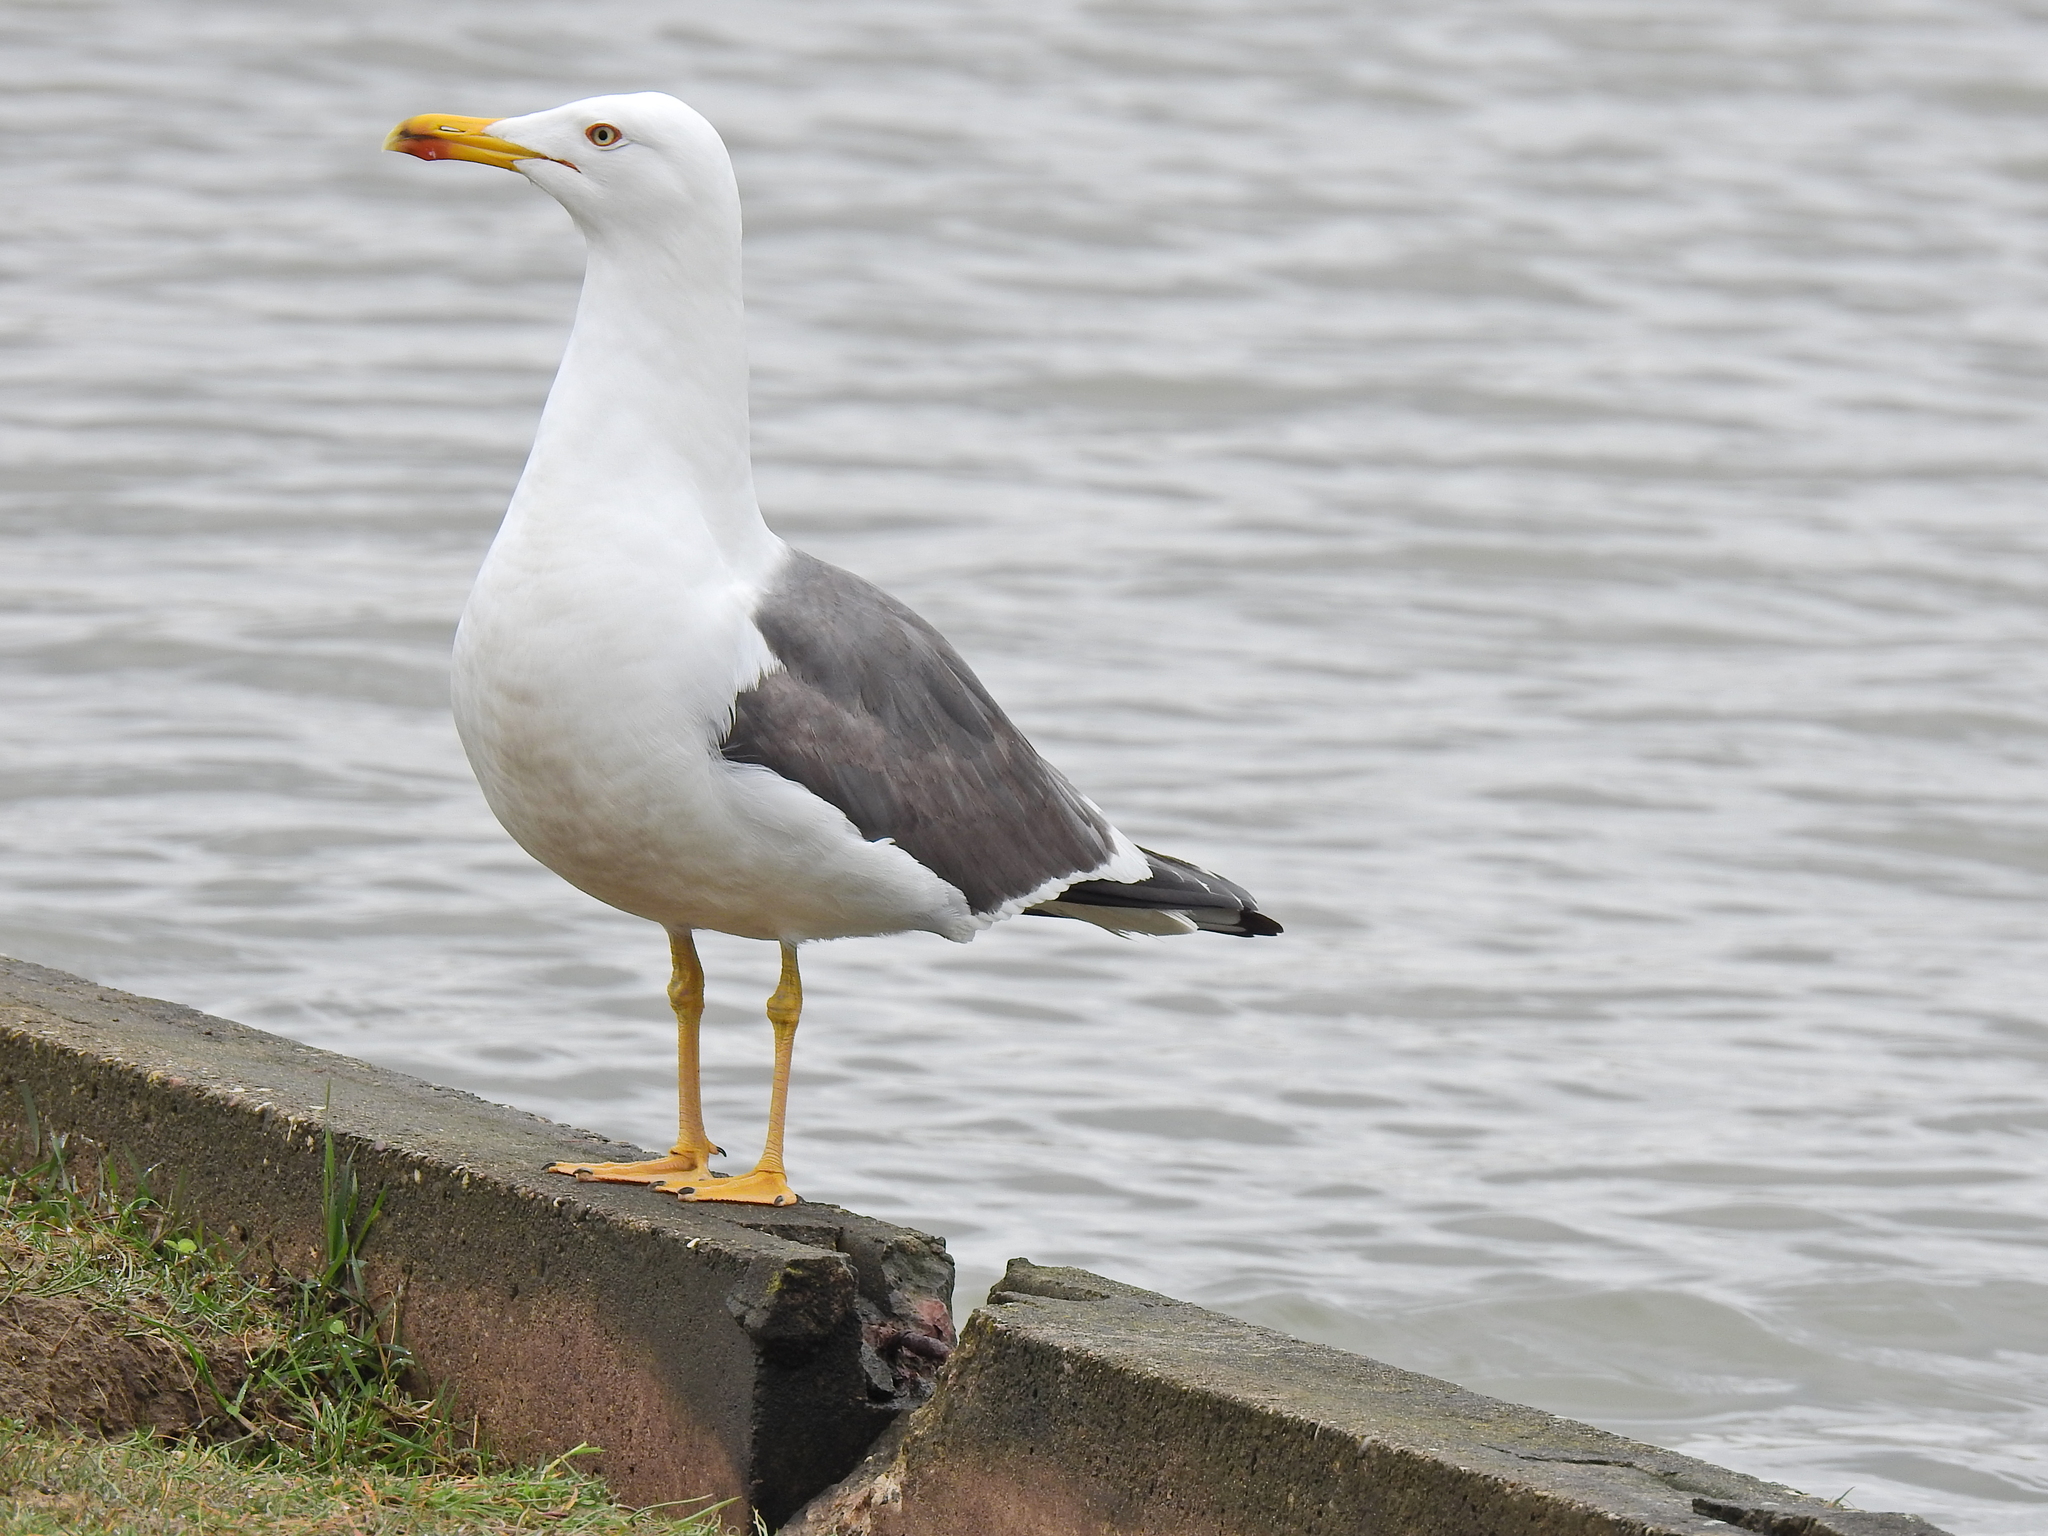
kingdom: Animalia
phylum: Chordata
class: Aves
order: Charadriiformes
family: Laridae
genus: Larus
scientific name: Larus fuscus
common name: Lesser black-backed gull
